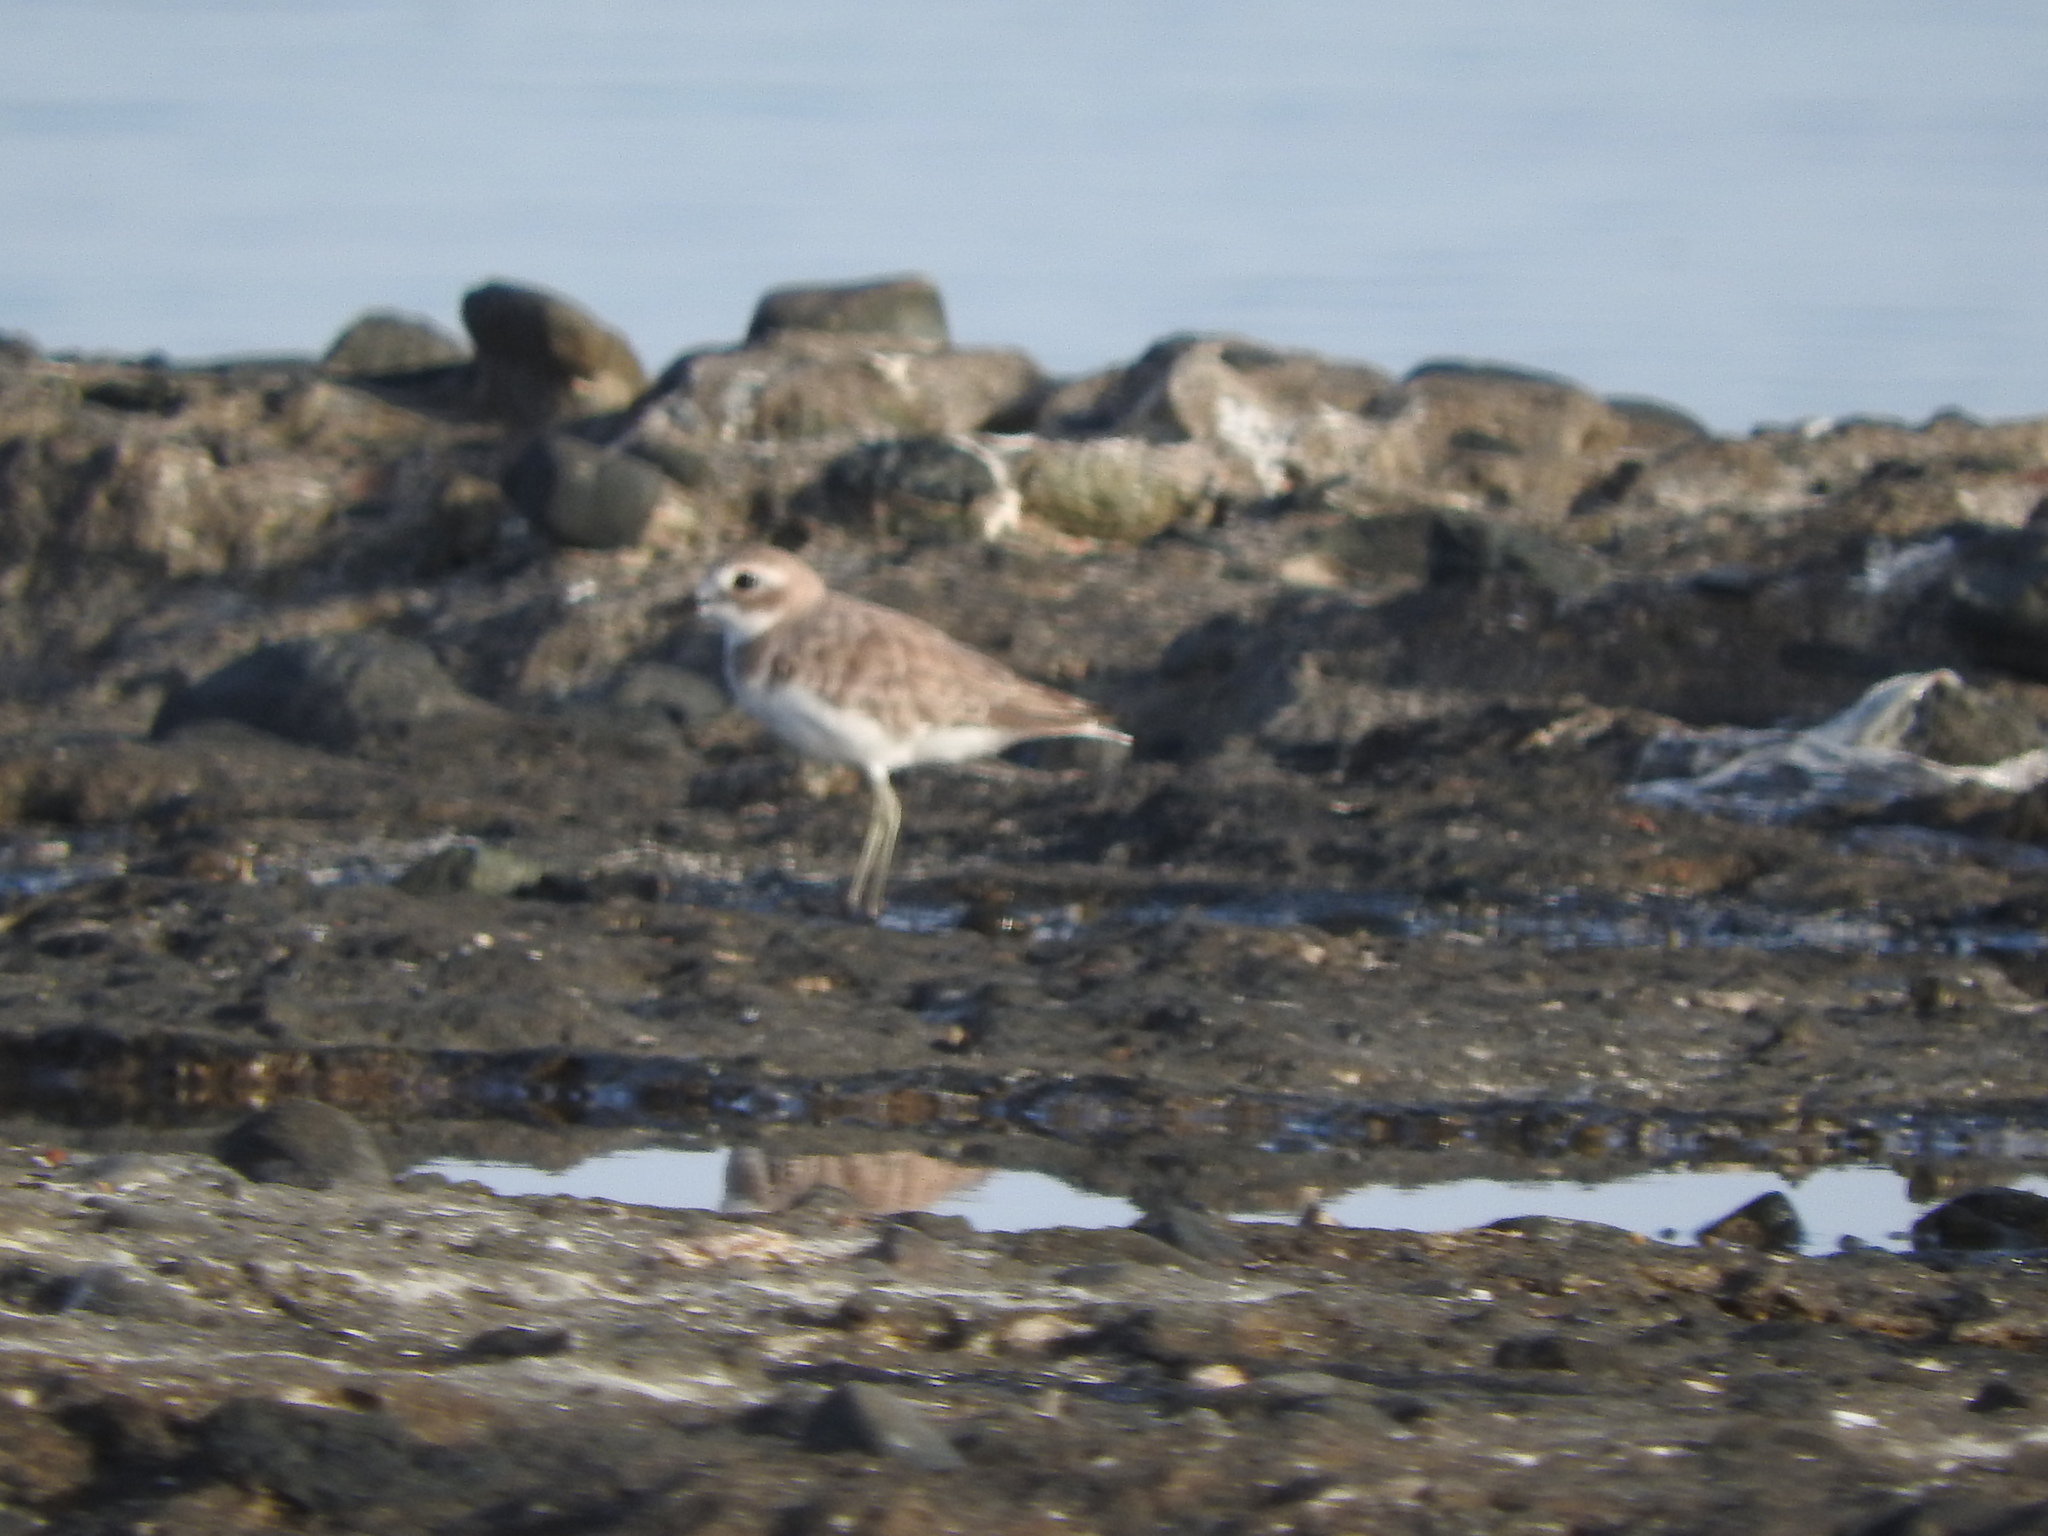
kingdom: Animalia
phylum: Chordata
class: Aves
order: Charadriiformes
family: Charadriidae
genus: Charadrius
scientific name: Charadrius leschenaultii
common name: Greater sand plover
